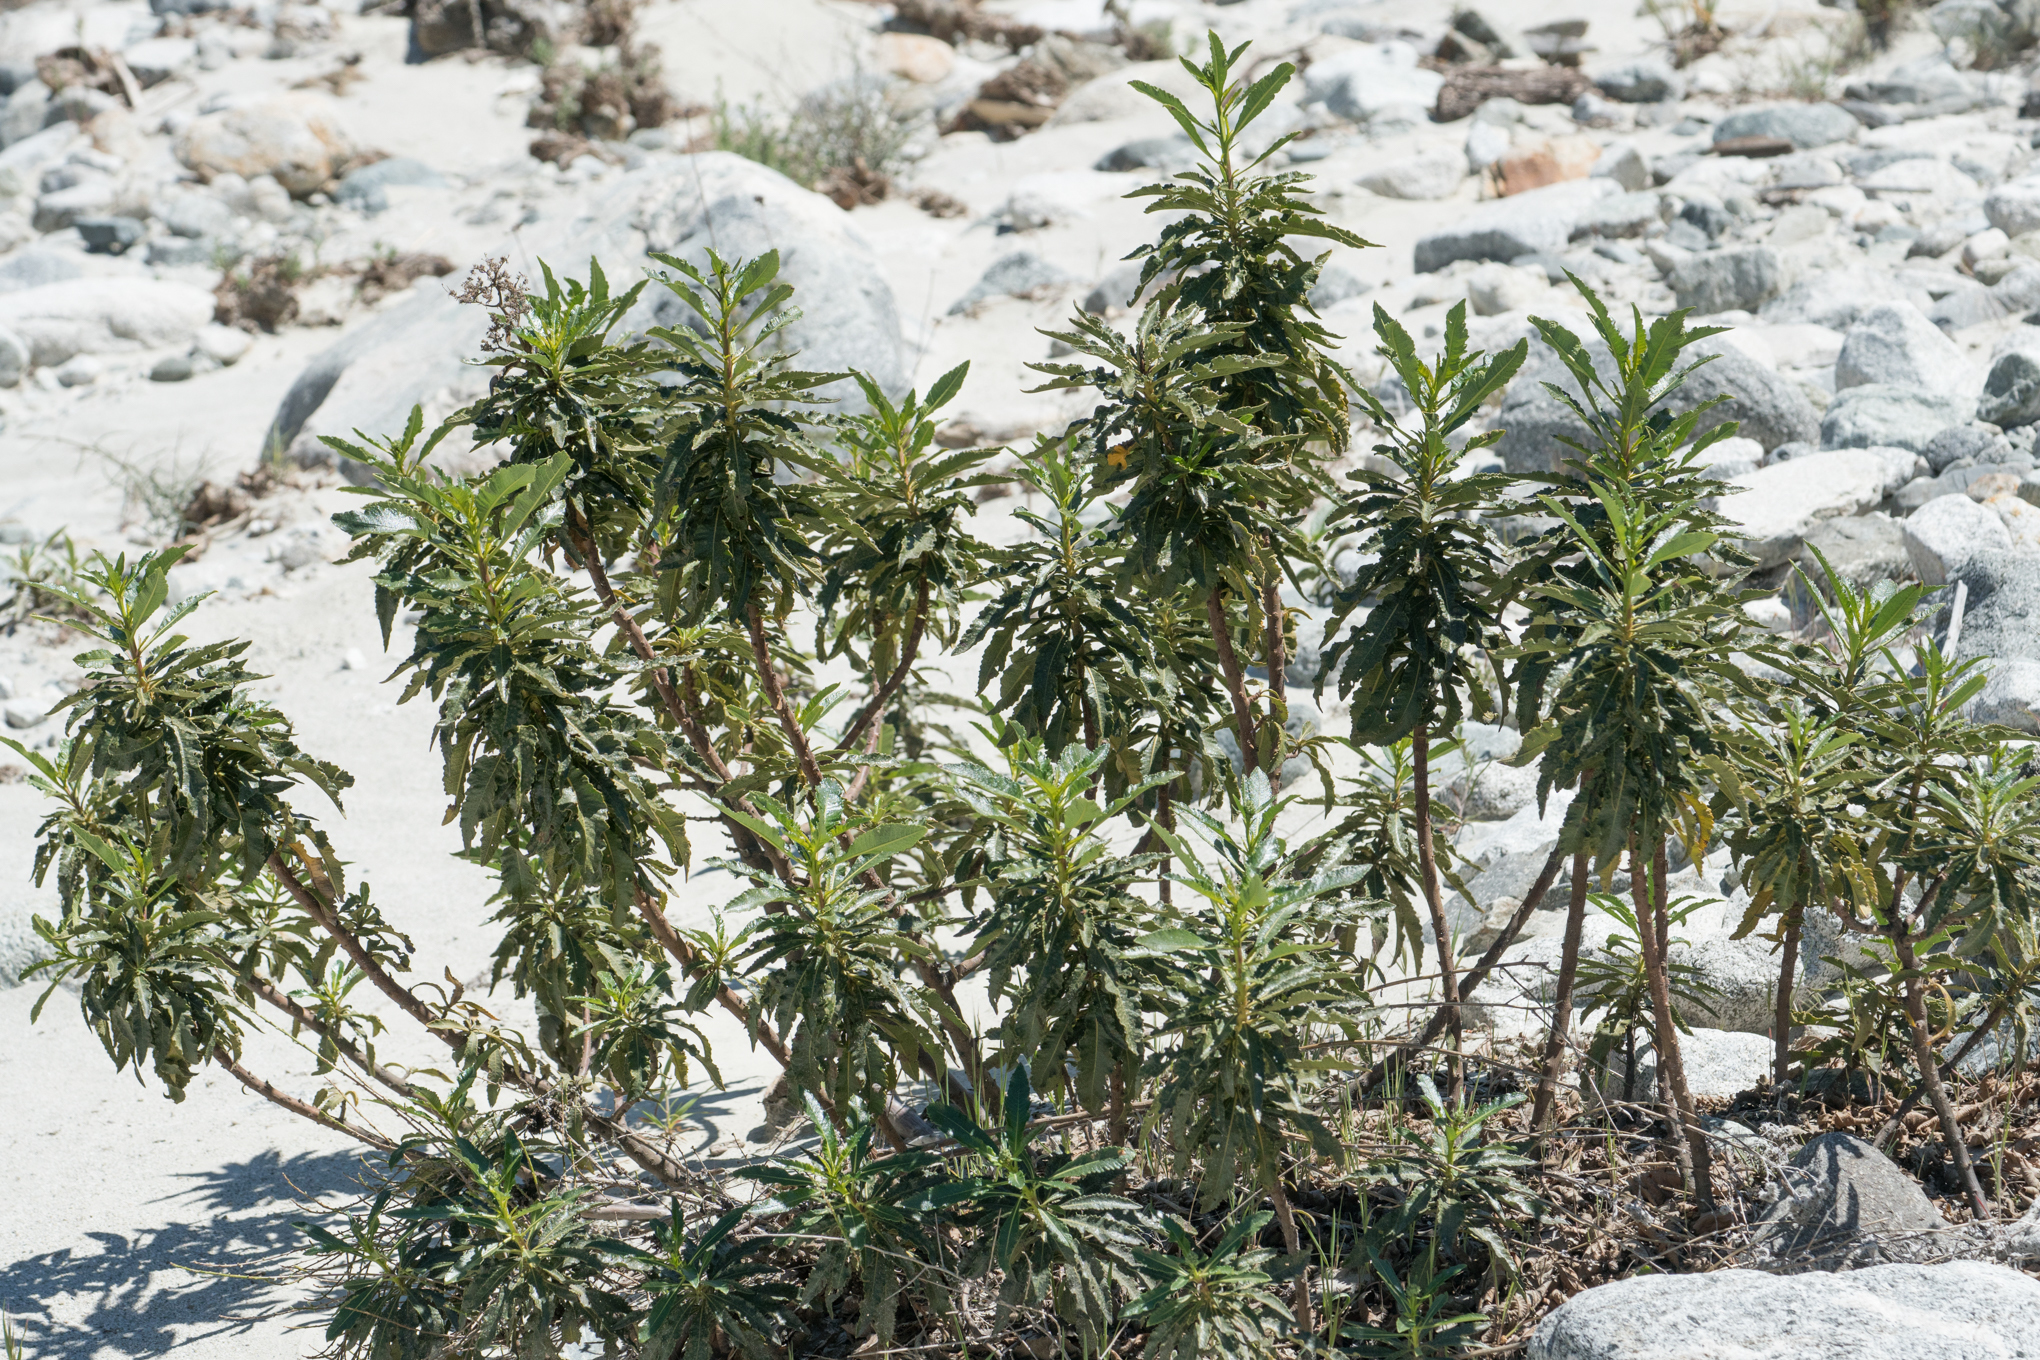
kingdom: Plantae
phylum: Tracheophyta
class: Magnoliopsida
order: Boraginales
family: Namaceae
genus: Eriodictyon
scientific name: Eriodictyon trichocalyx
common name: Hairy yerba-santa
